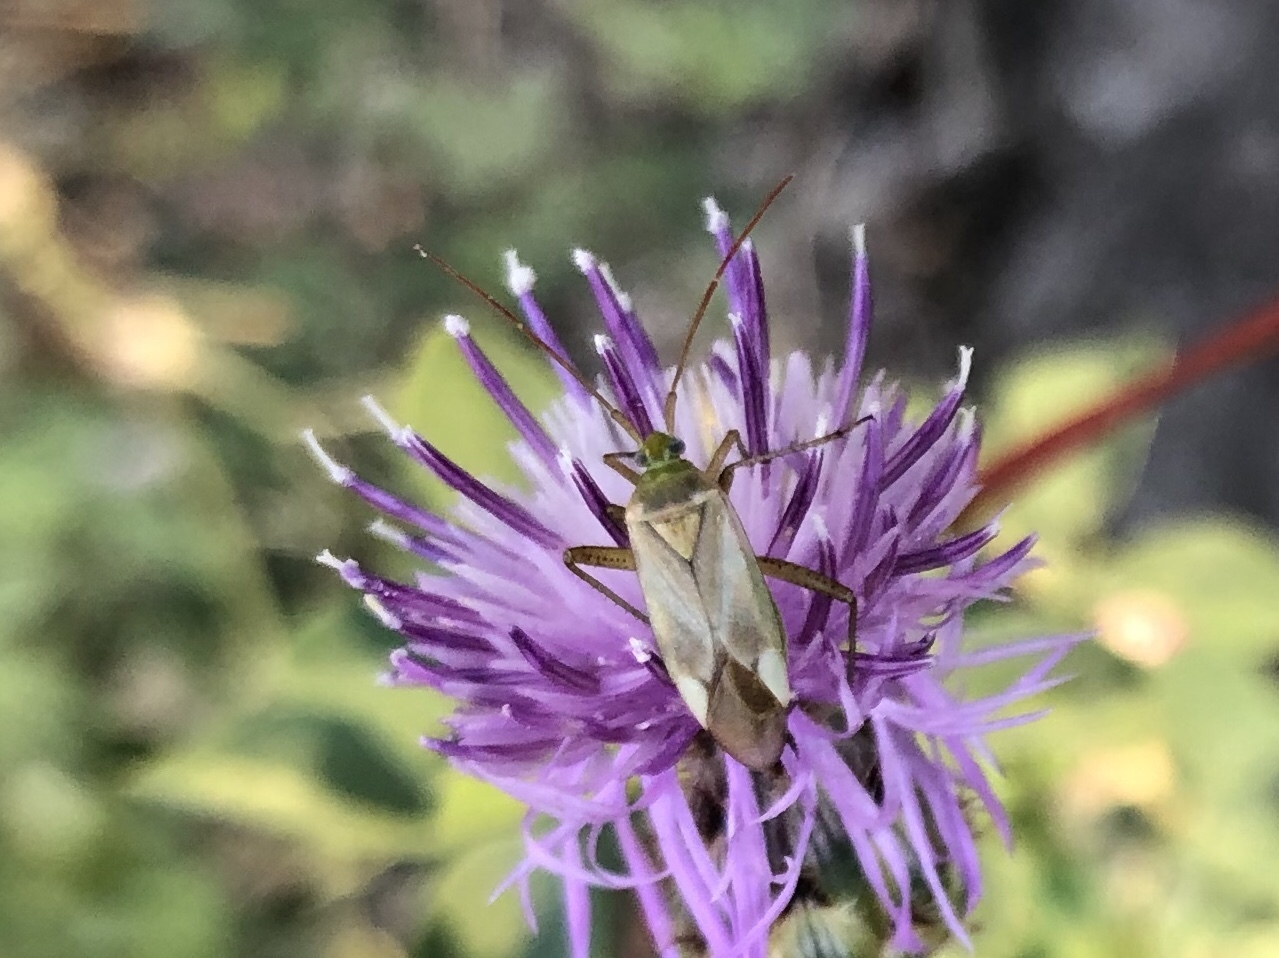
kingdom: Animalia
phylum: Arthropoda
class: Insecta
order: Hemiptera
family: Miridae
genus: Adelphocoris
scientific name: Adelphocoris lineolatus
